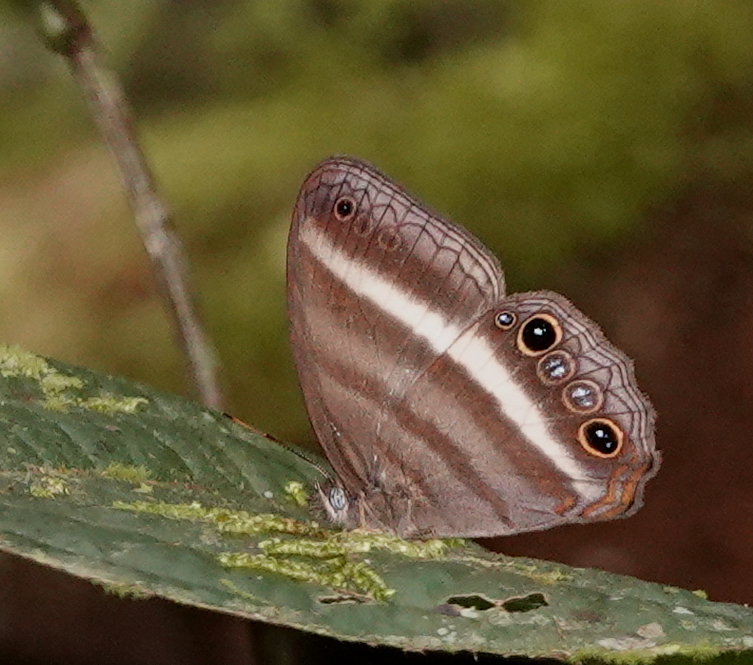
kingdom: Animalia
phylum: Arthropoda
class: Insecta
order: Lepidoptera
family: Nymphalidae
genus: Pareuptychia
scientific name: Pareuptychia summandosa
